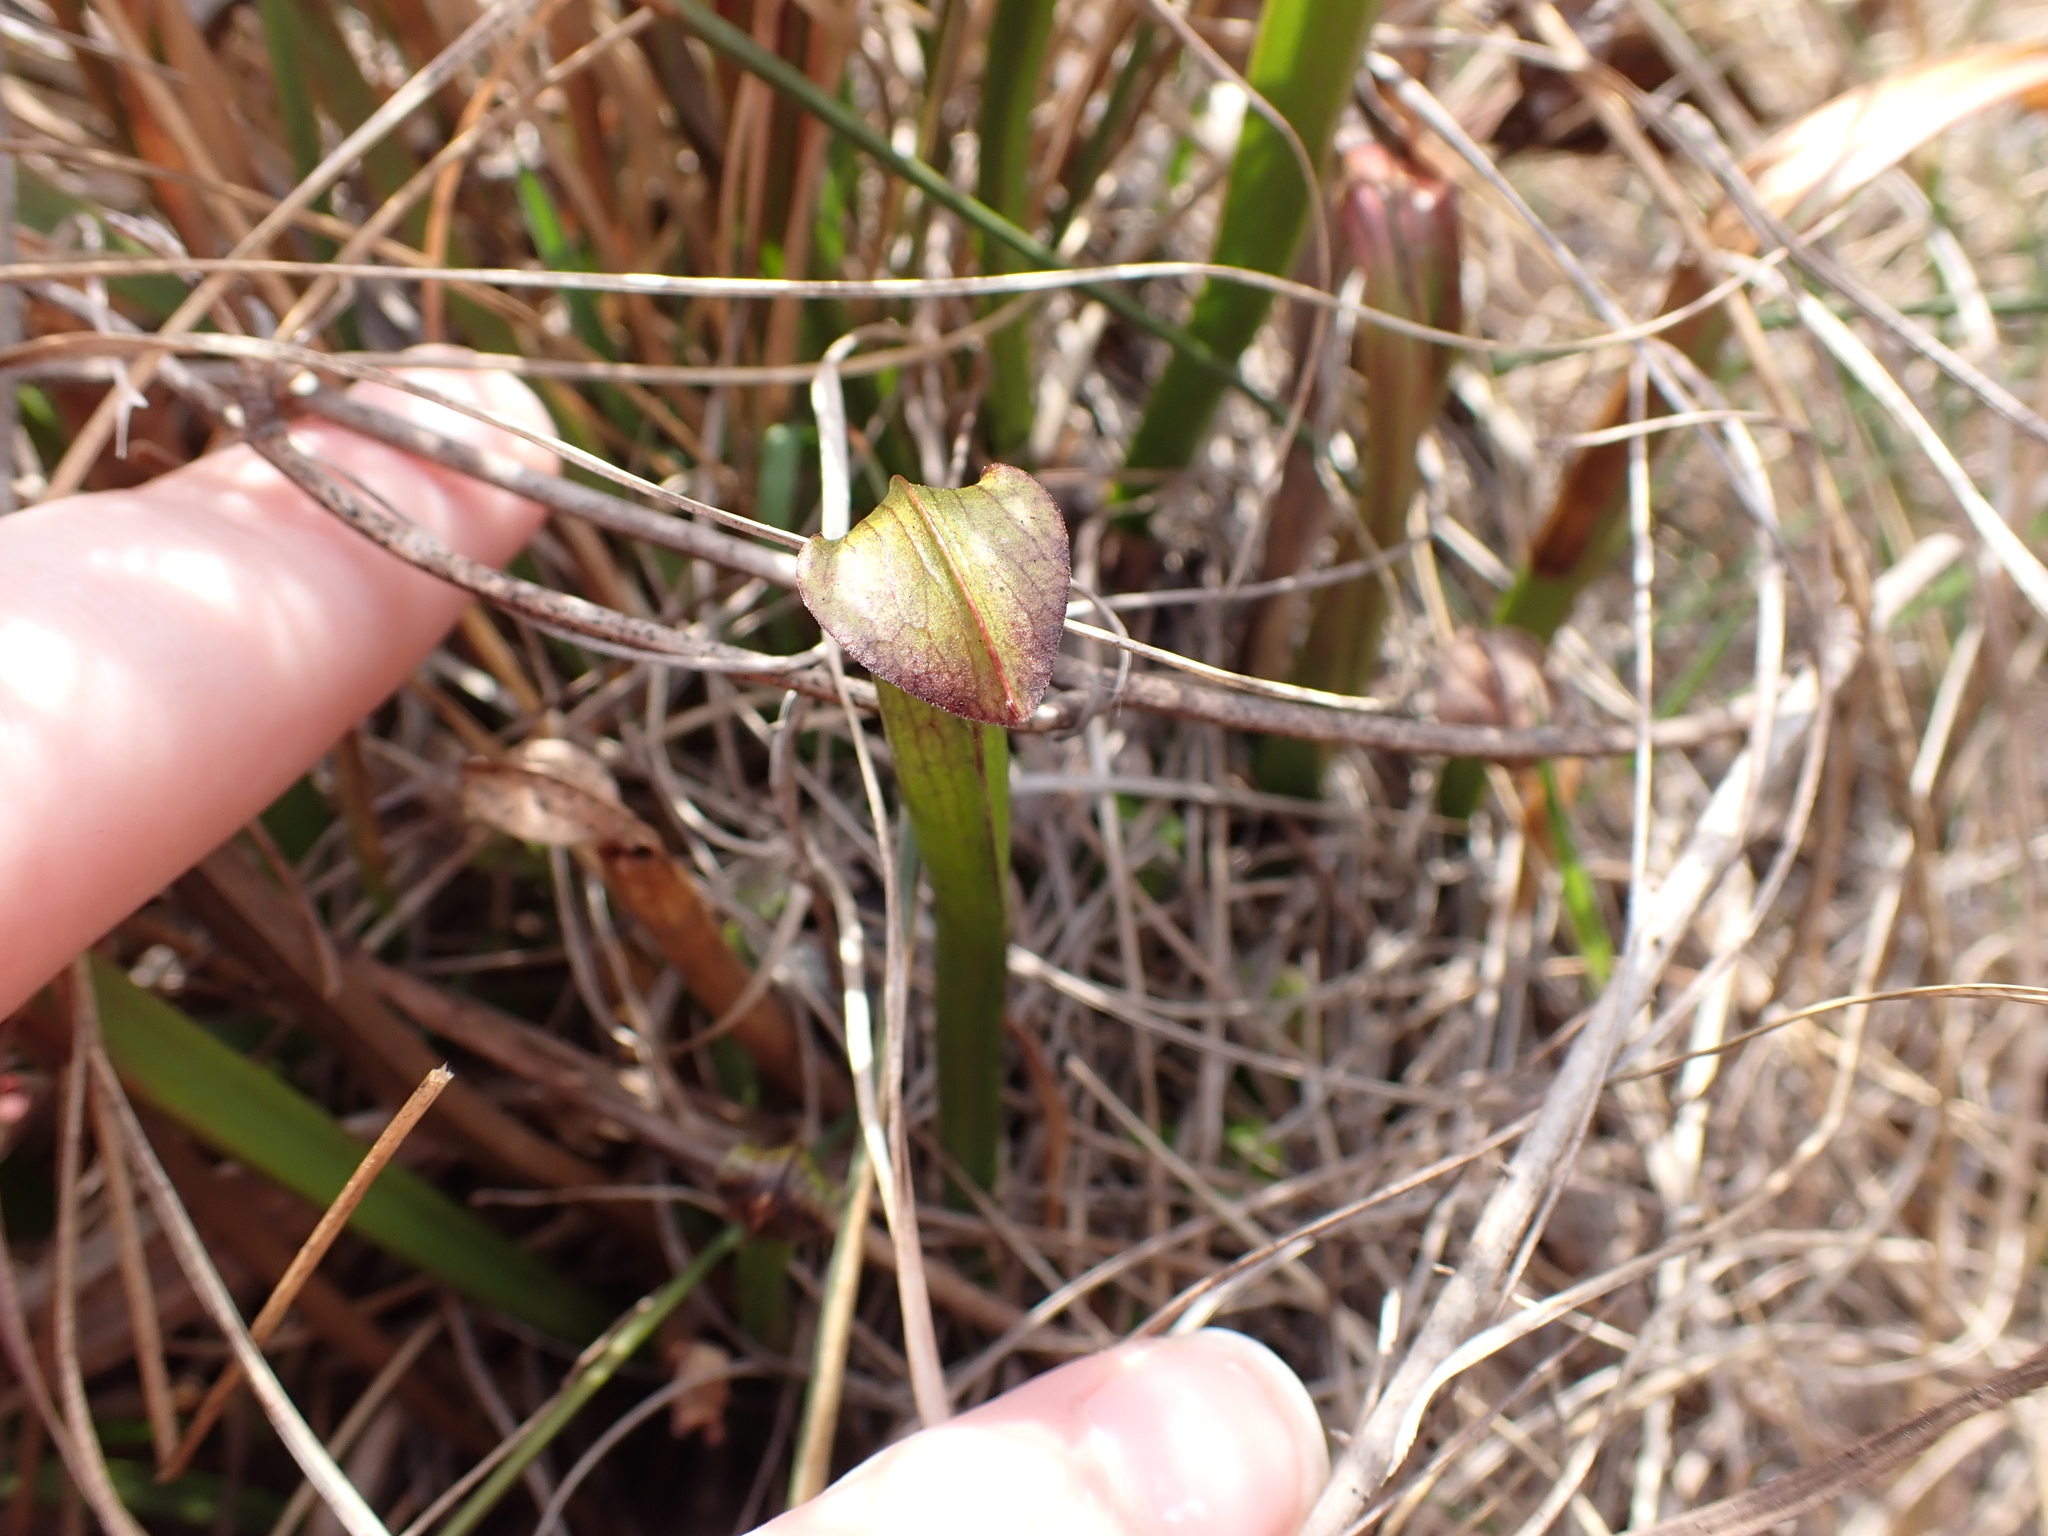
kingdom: Plantae
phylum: Tracheophyta
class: Magnoliopsida
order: Ericales
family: Sarraceniaceae
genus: Sarracenia
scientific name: Sarracenia jonesii
